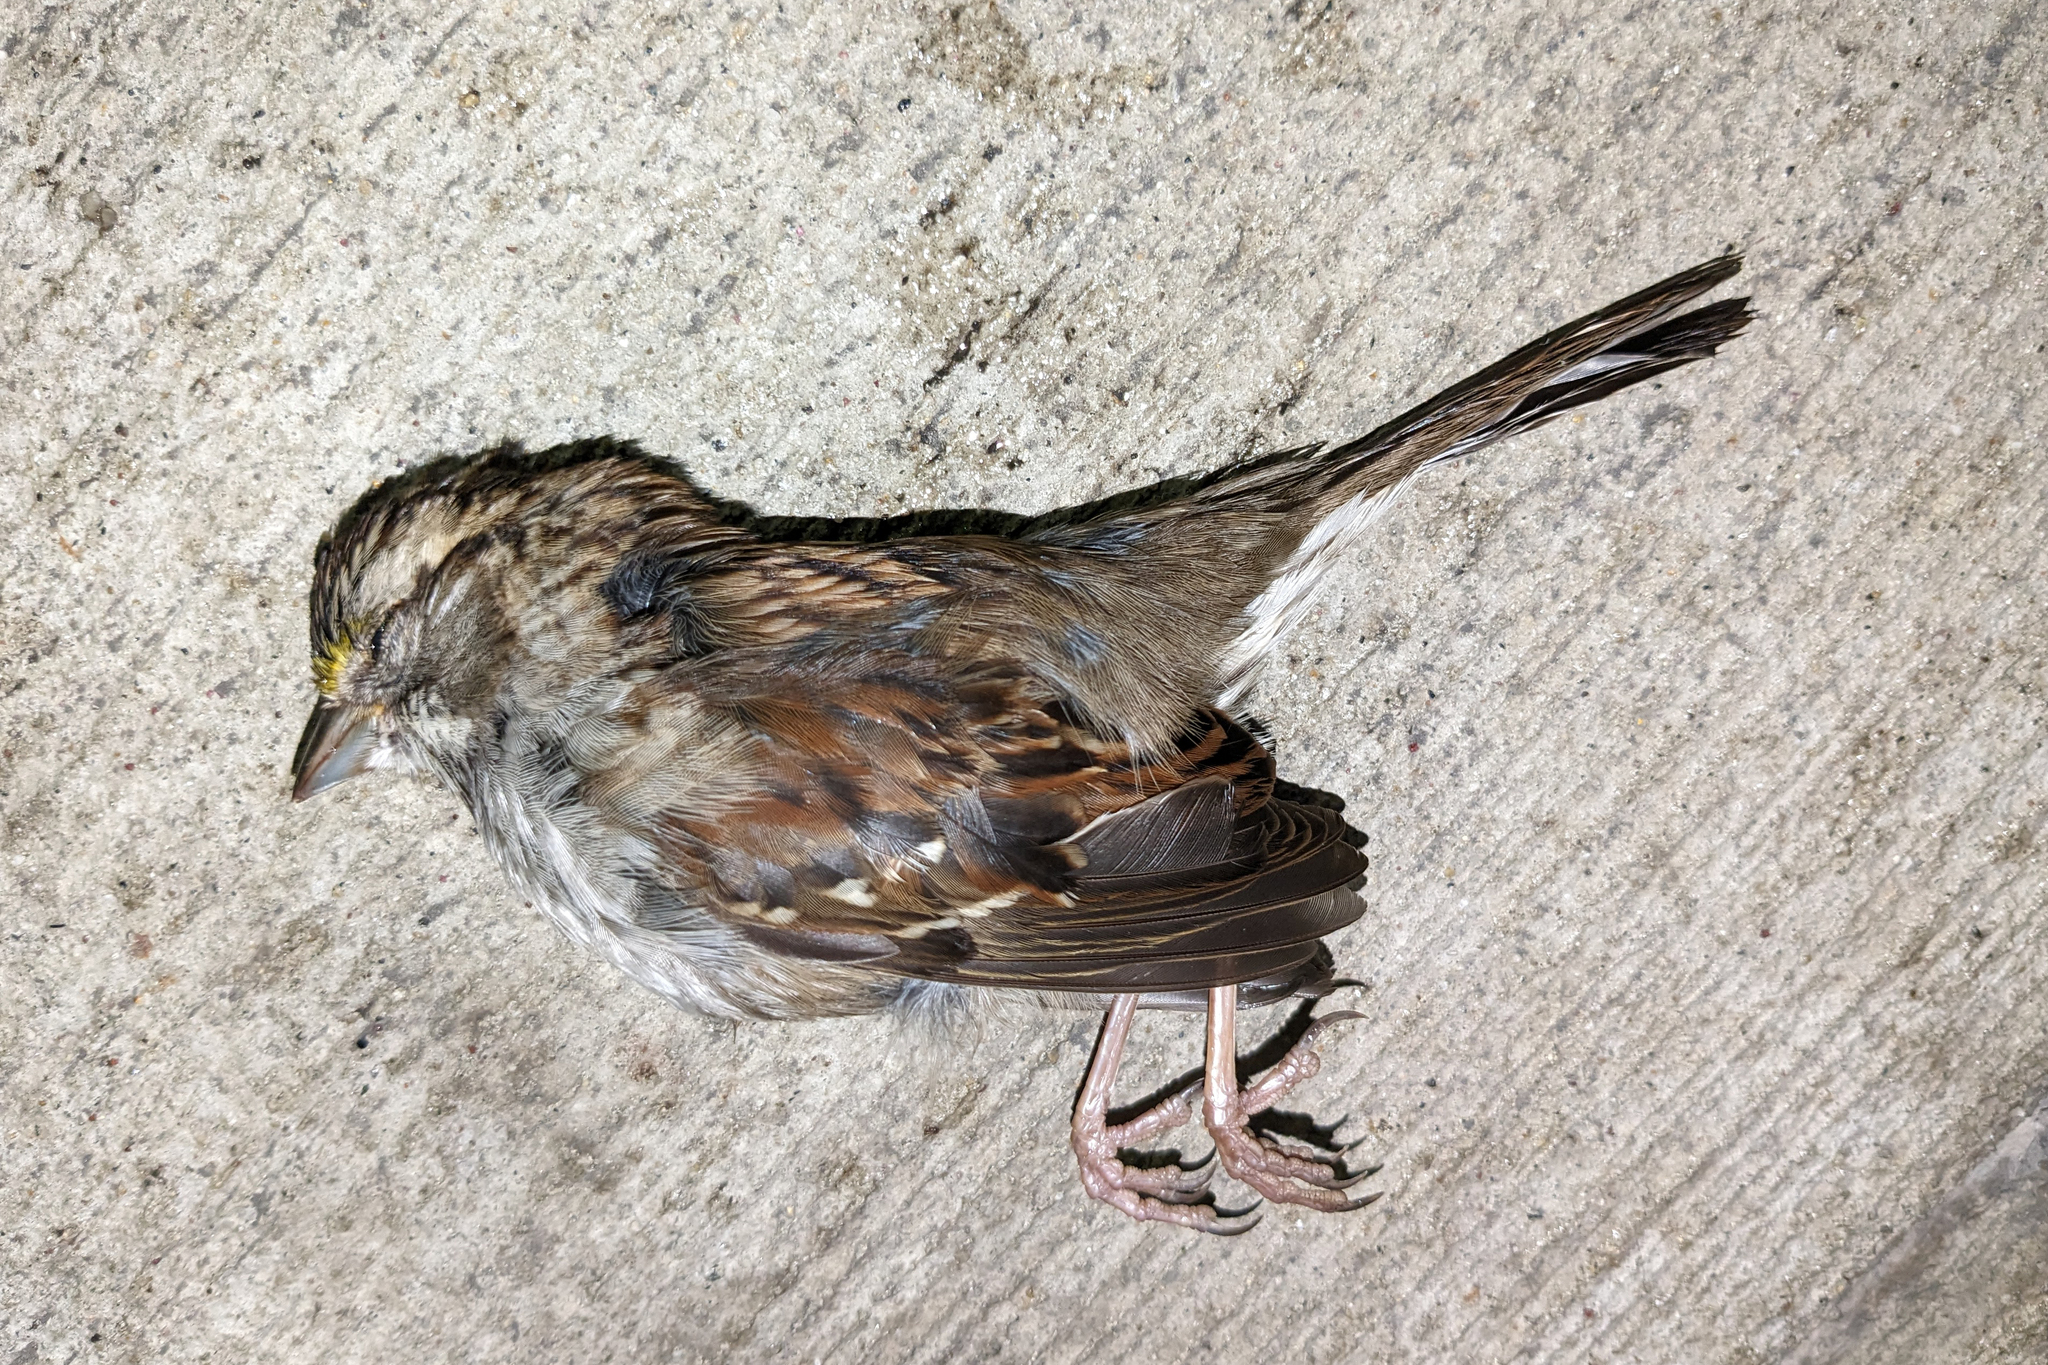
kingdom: Animalia
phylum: Chordata
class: Aves
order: Passeriformes
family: Passerellidae
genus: Zonotrichia
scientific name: Zonotrichia albicollis
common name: White-throated sparrow
